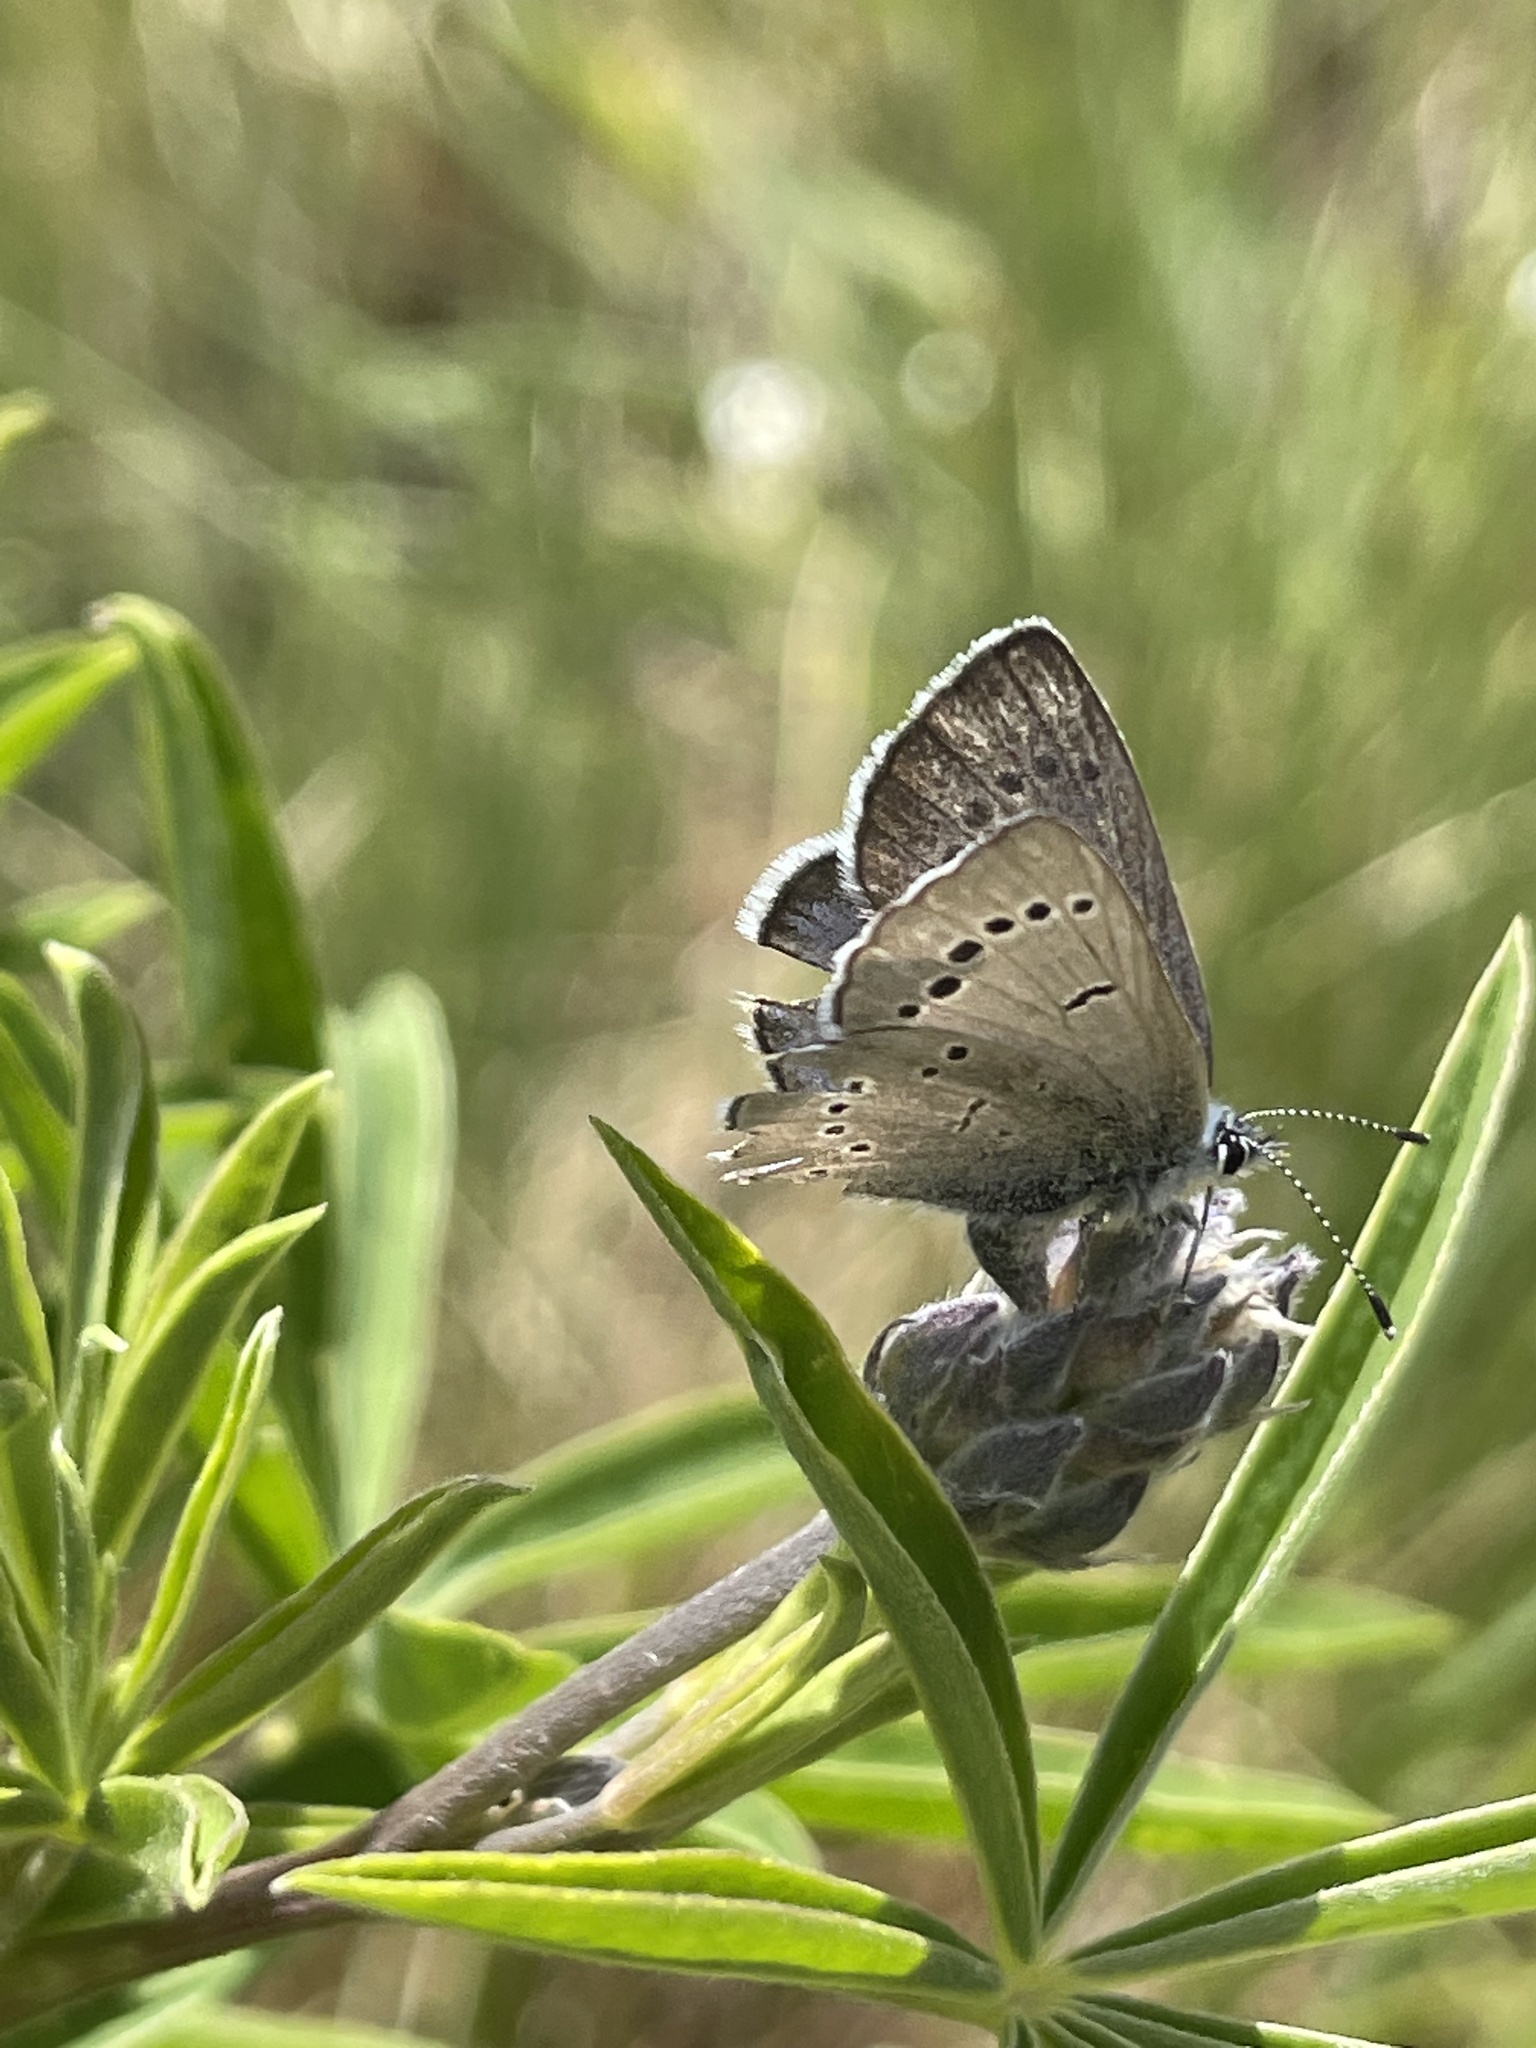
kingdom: Animalia
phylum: Arthropoda
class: Insecta
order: Lepidoptera
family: Lycaenidae
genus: Glaucopsyche
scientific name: Glaucopsyche lygdamus
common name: Silvery blue
